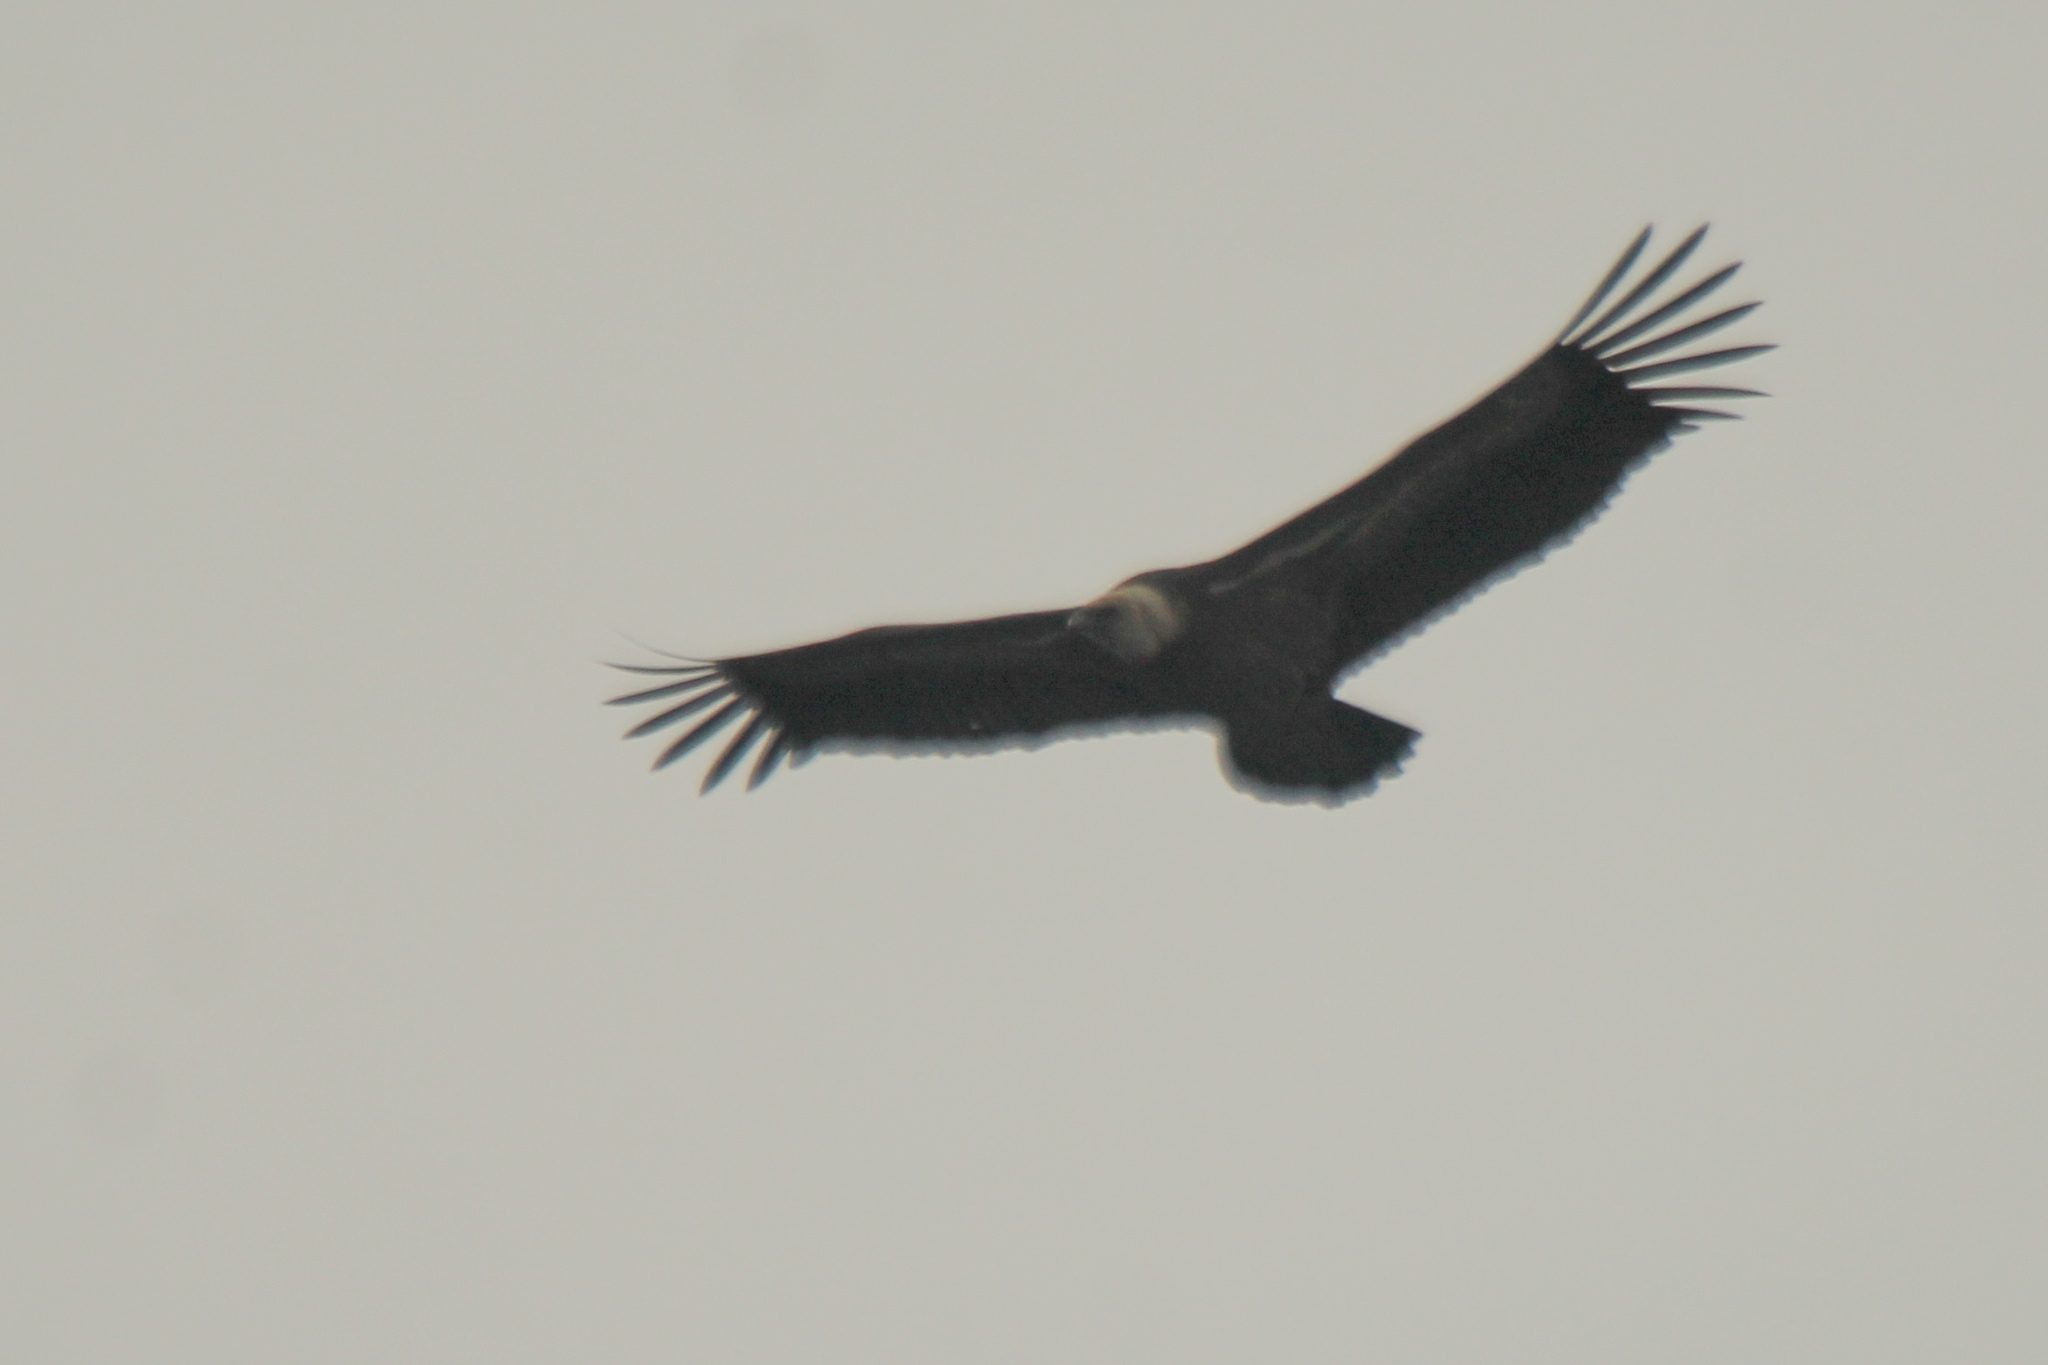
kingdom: Animalia
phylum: Chordata
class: Aves
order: Accipitriformes
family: Accipitridae
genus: Gyps
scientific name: Gyps fulvus
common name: Griffon vulture
